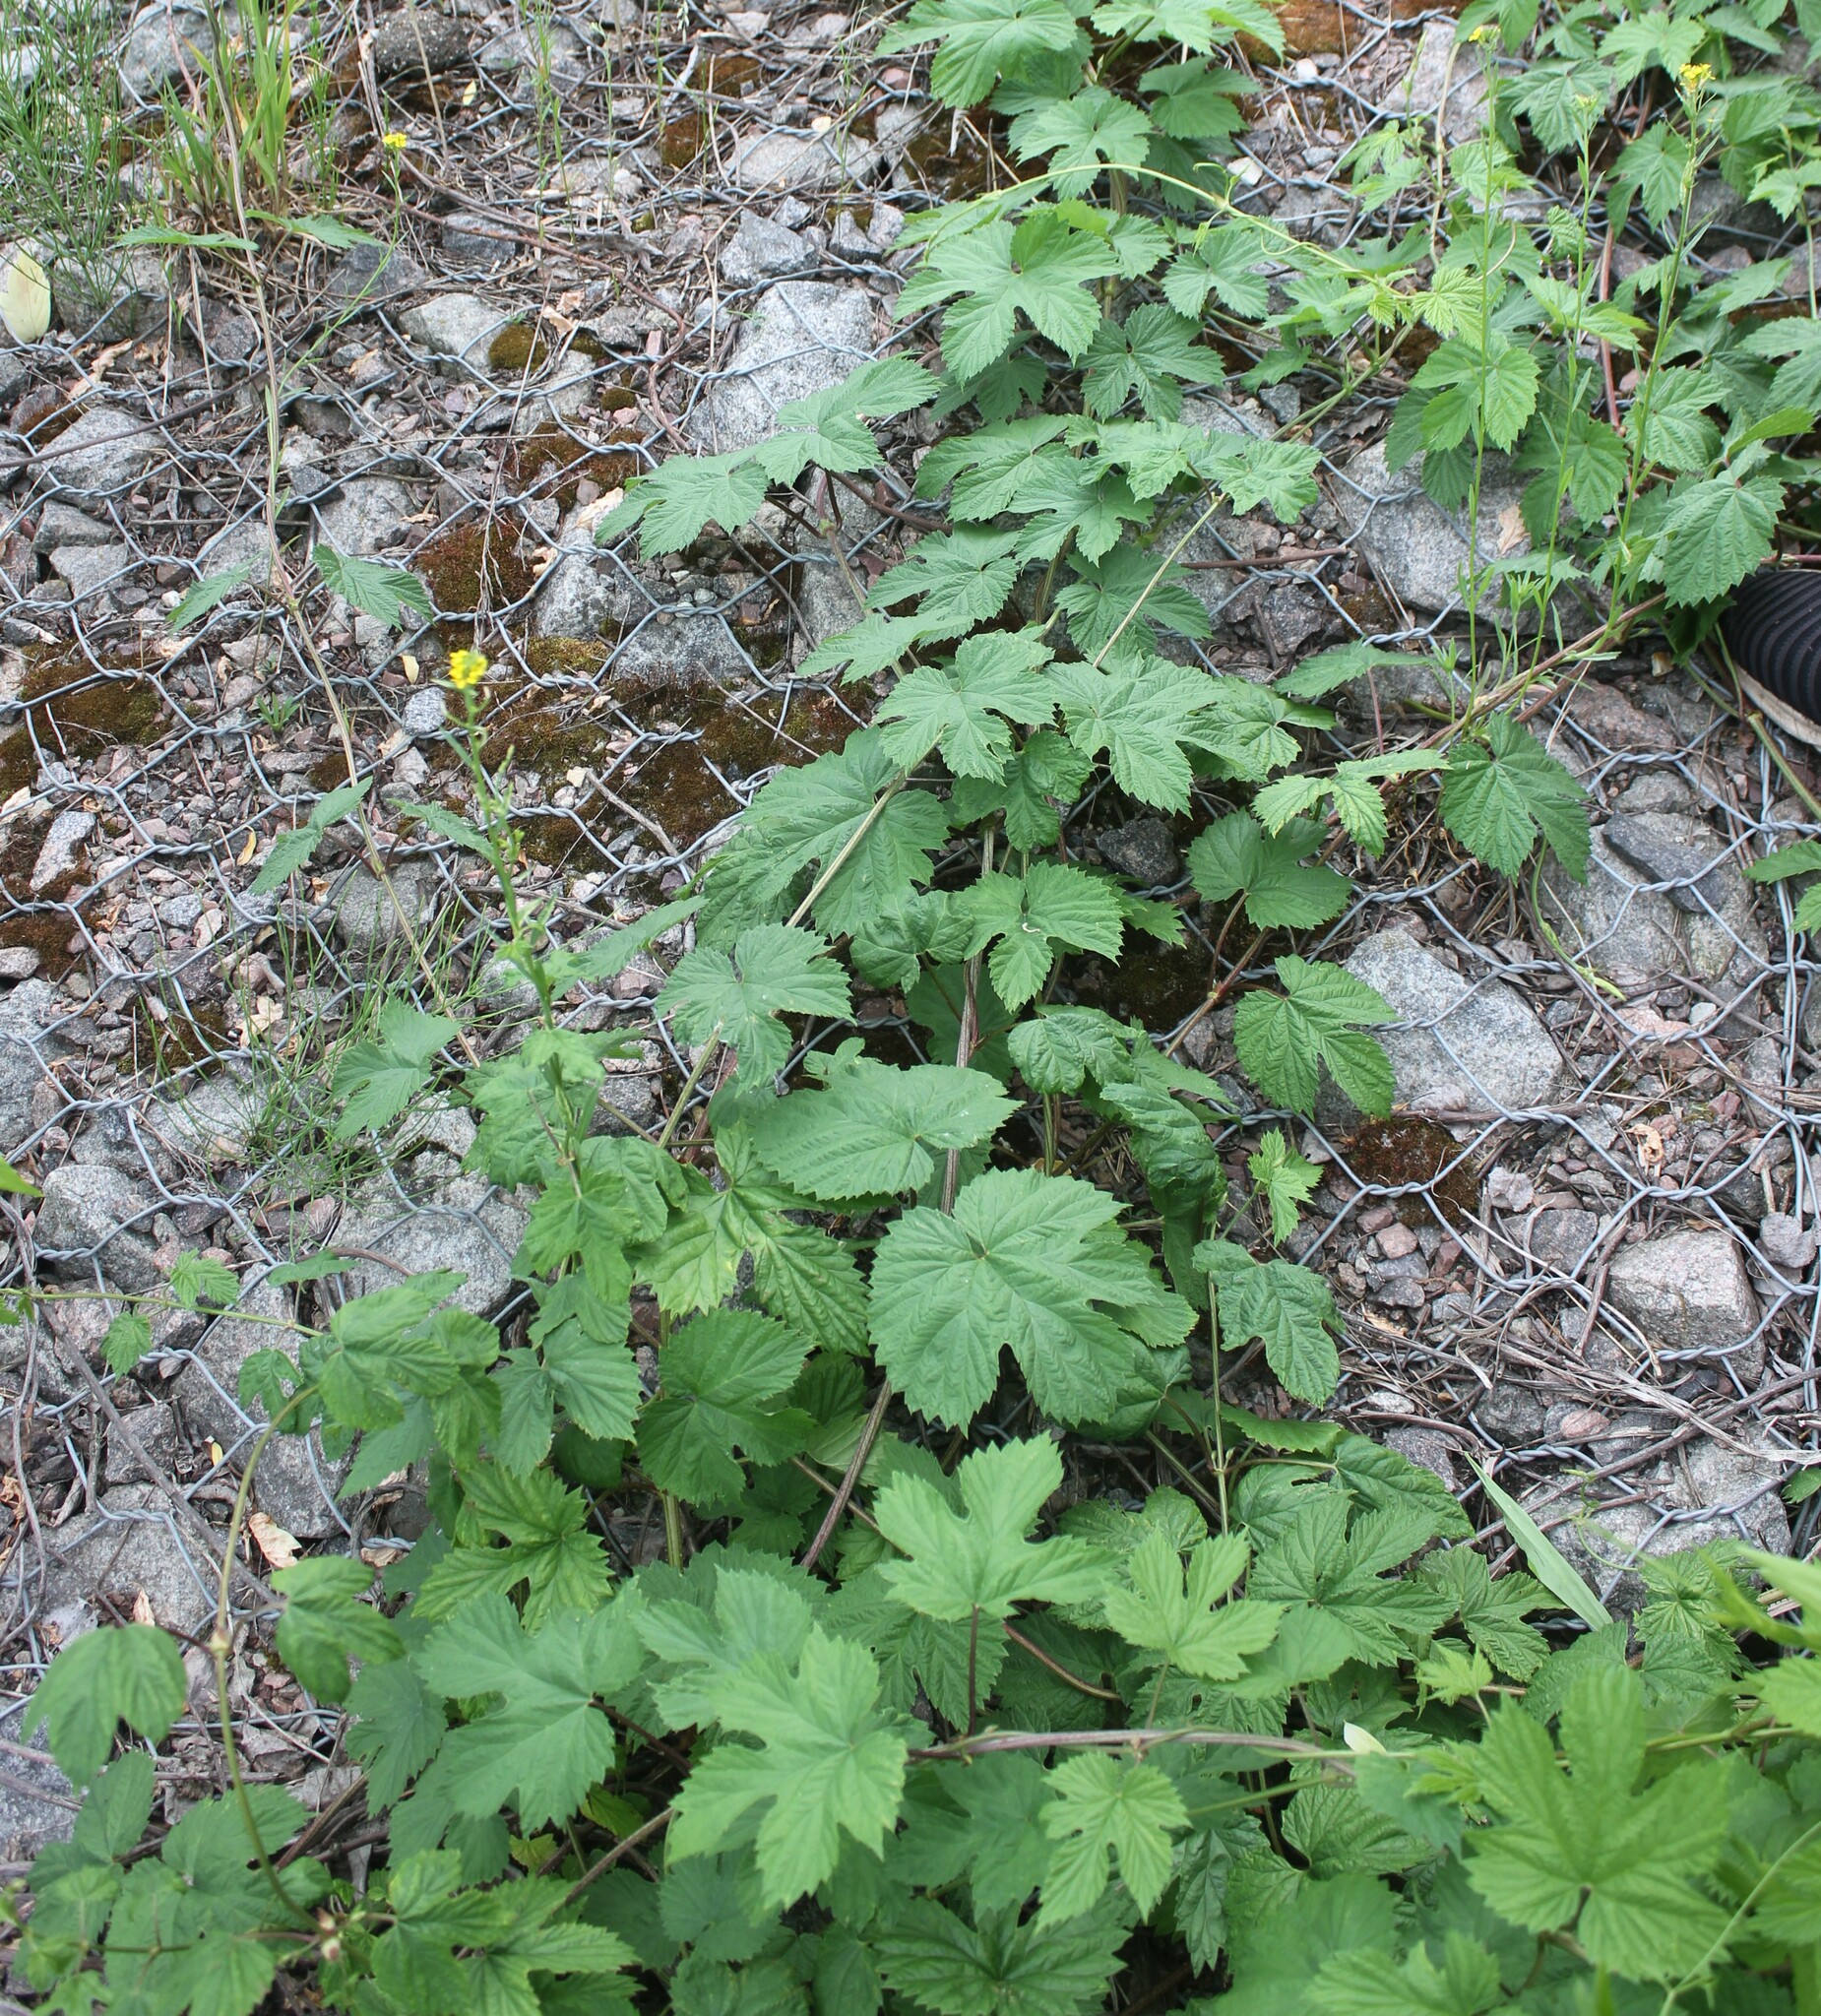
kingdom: Plantae
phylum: Tracheophyta
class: Magnoliopsida
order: Rosales
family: Cannabaceae
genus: Humulus
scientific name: Humulus lupulus
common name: Hop
